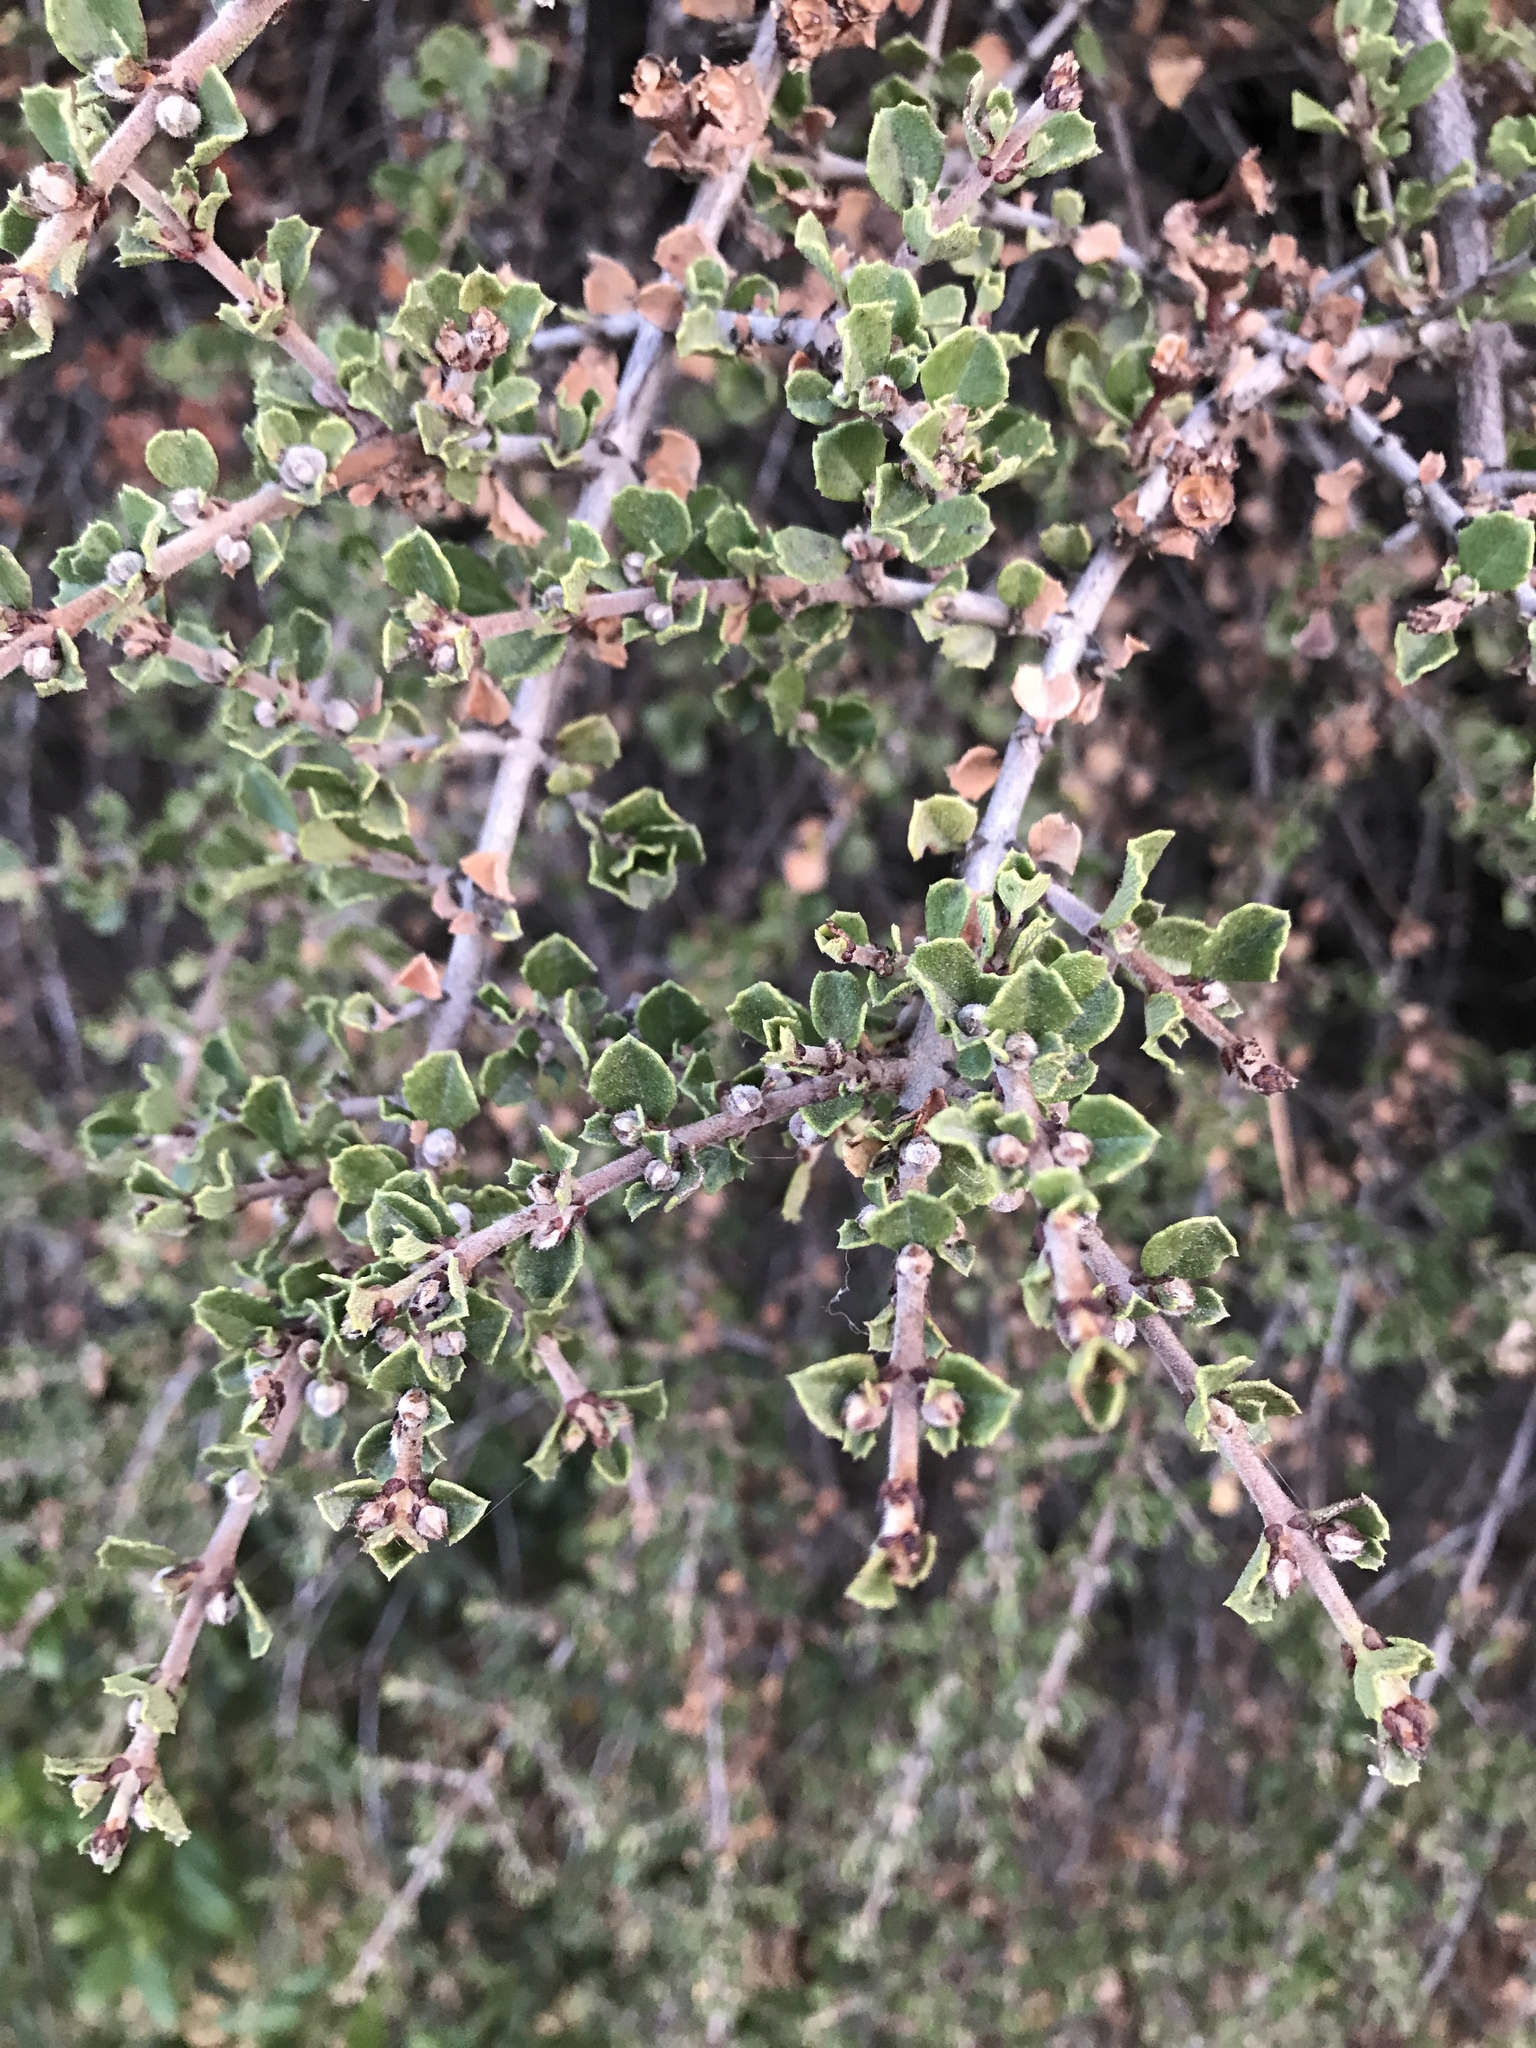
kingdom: Plantae
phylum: Tracheophyta
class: Magnoliopsida
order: Rosales
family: Rhamnaceae
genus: Ceanothus
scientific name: Ceanothus cuneatus
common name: Cuneate ceanothus
